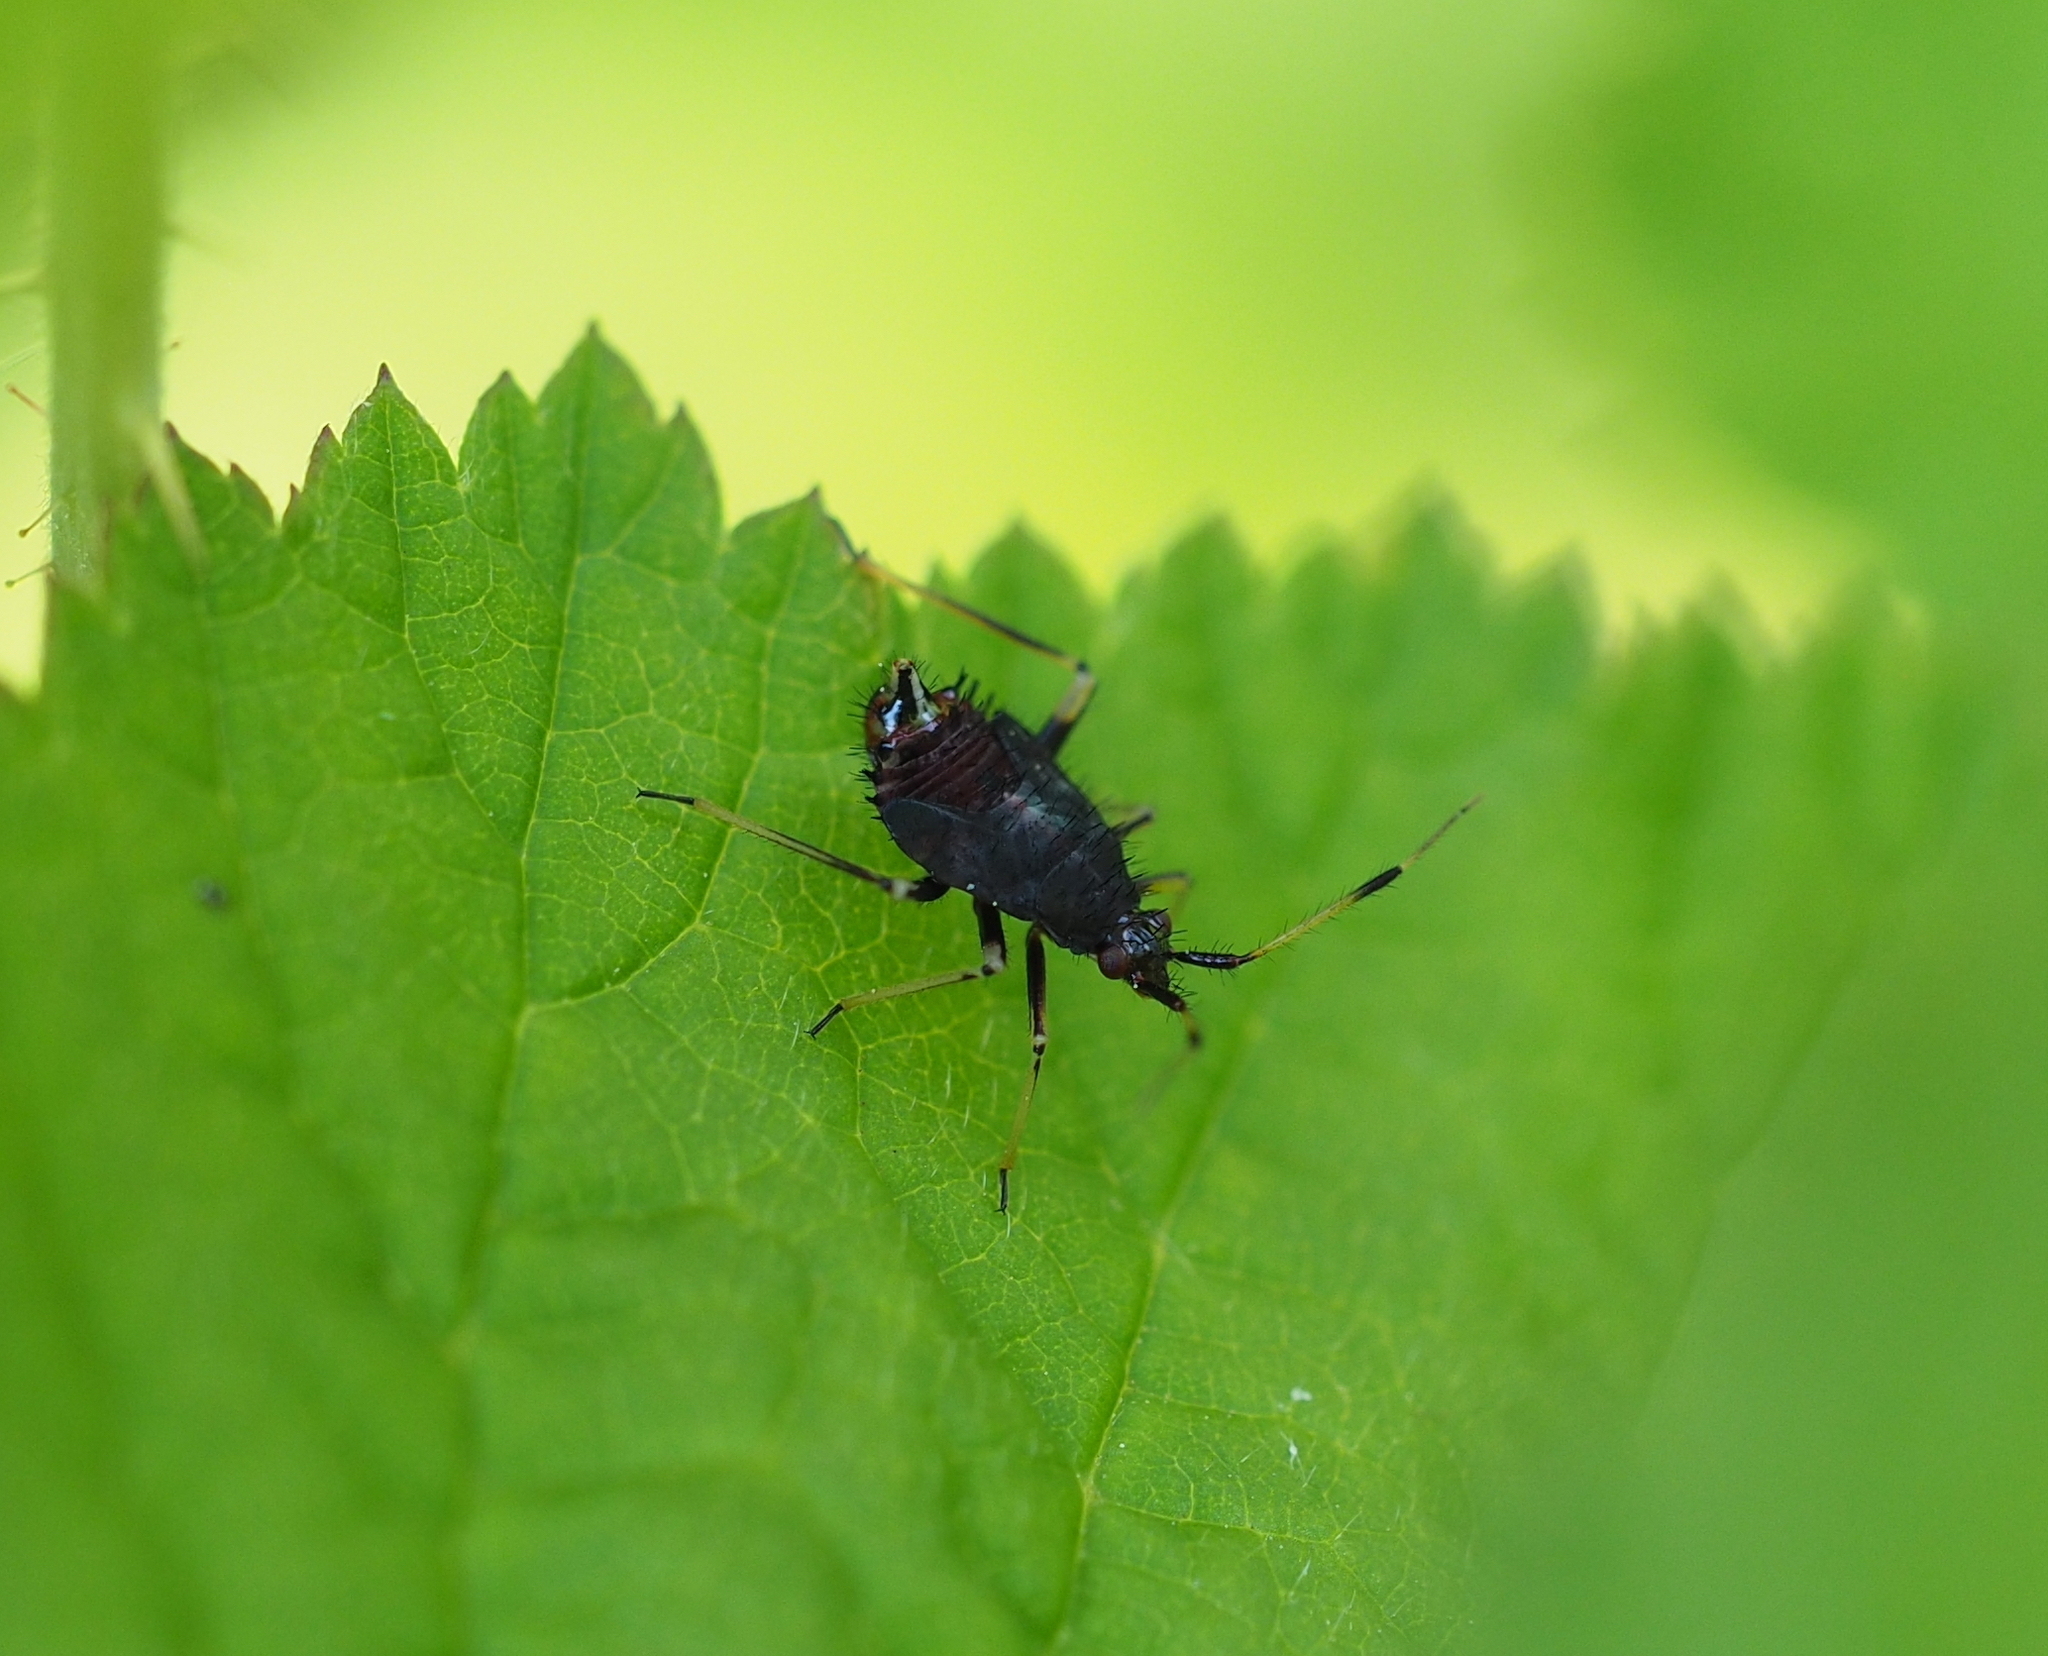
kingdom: Animalia
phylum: Arthropoda
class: Insecta
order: Hemiptera
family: Miridae
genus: Deraeocoris
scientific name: Deraeocoris ruber
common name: Plant bug
